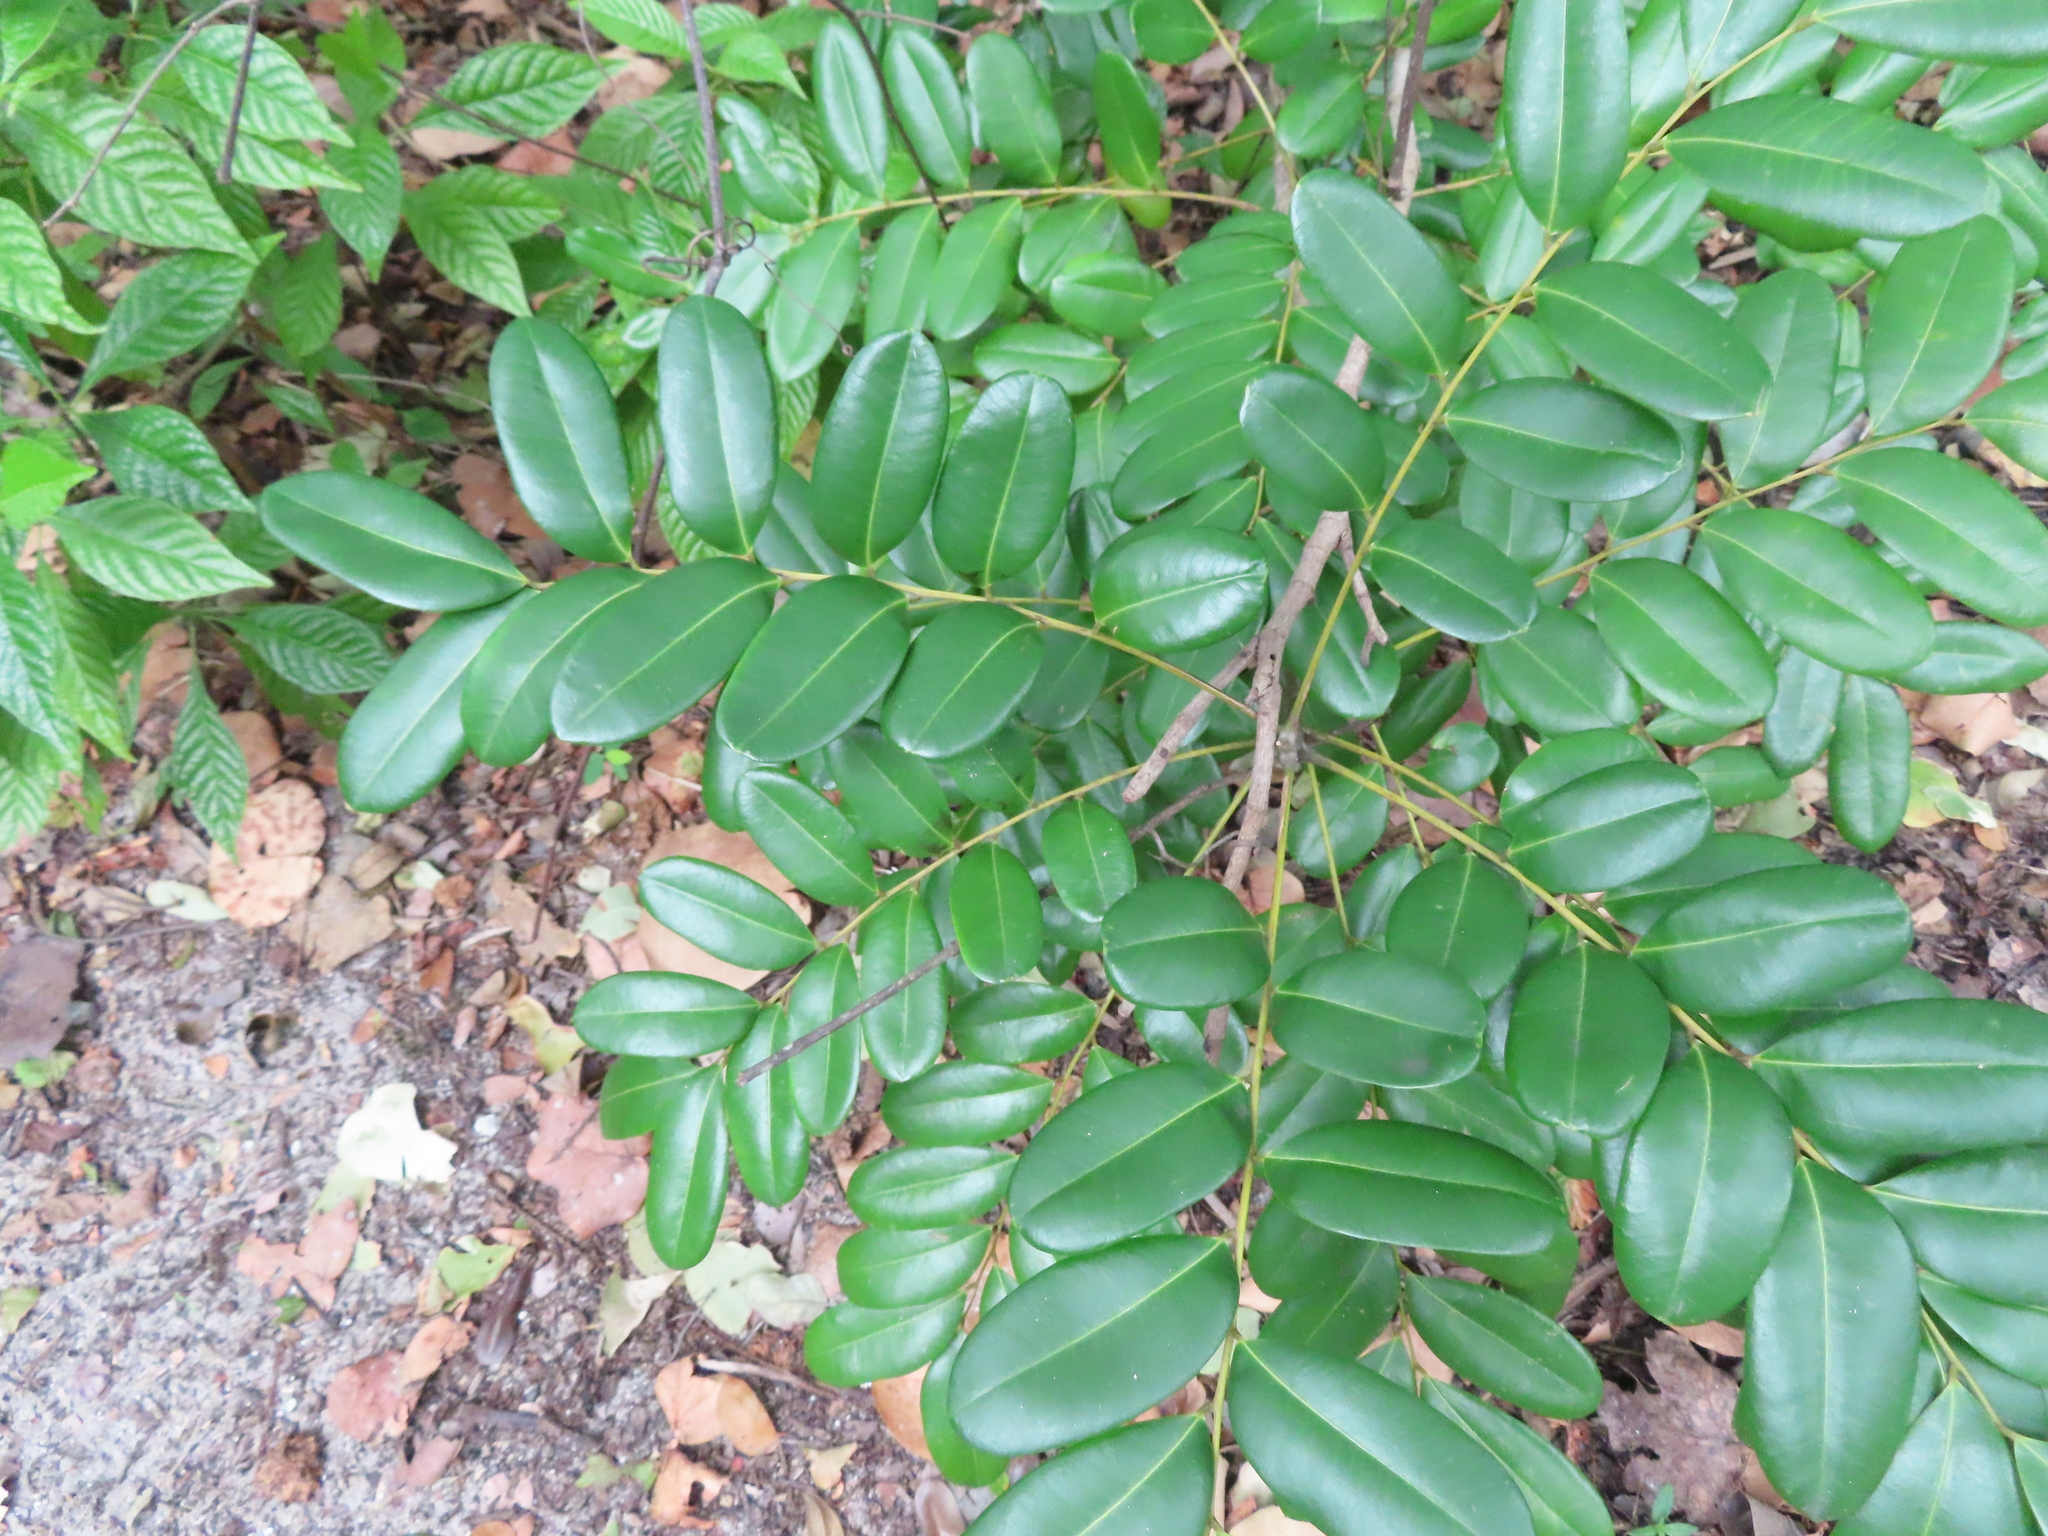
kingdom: Plantae
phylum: Tracheophyta
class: Magnoliopsida
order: Sapindales
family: Simaroubaceae
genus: Simarouba
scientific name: Simarouba glauca
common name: Dysentery-bark
